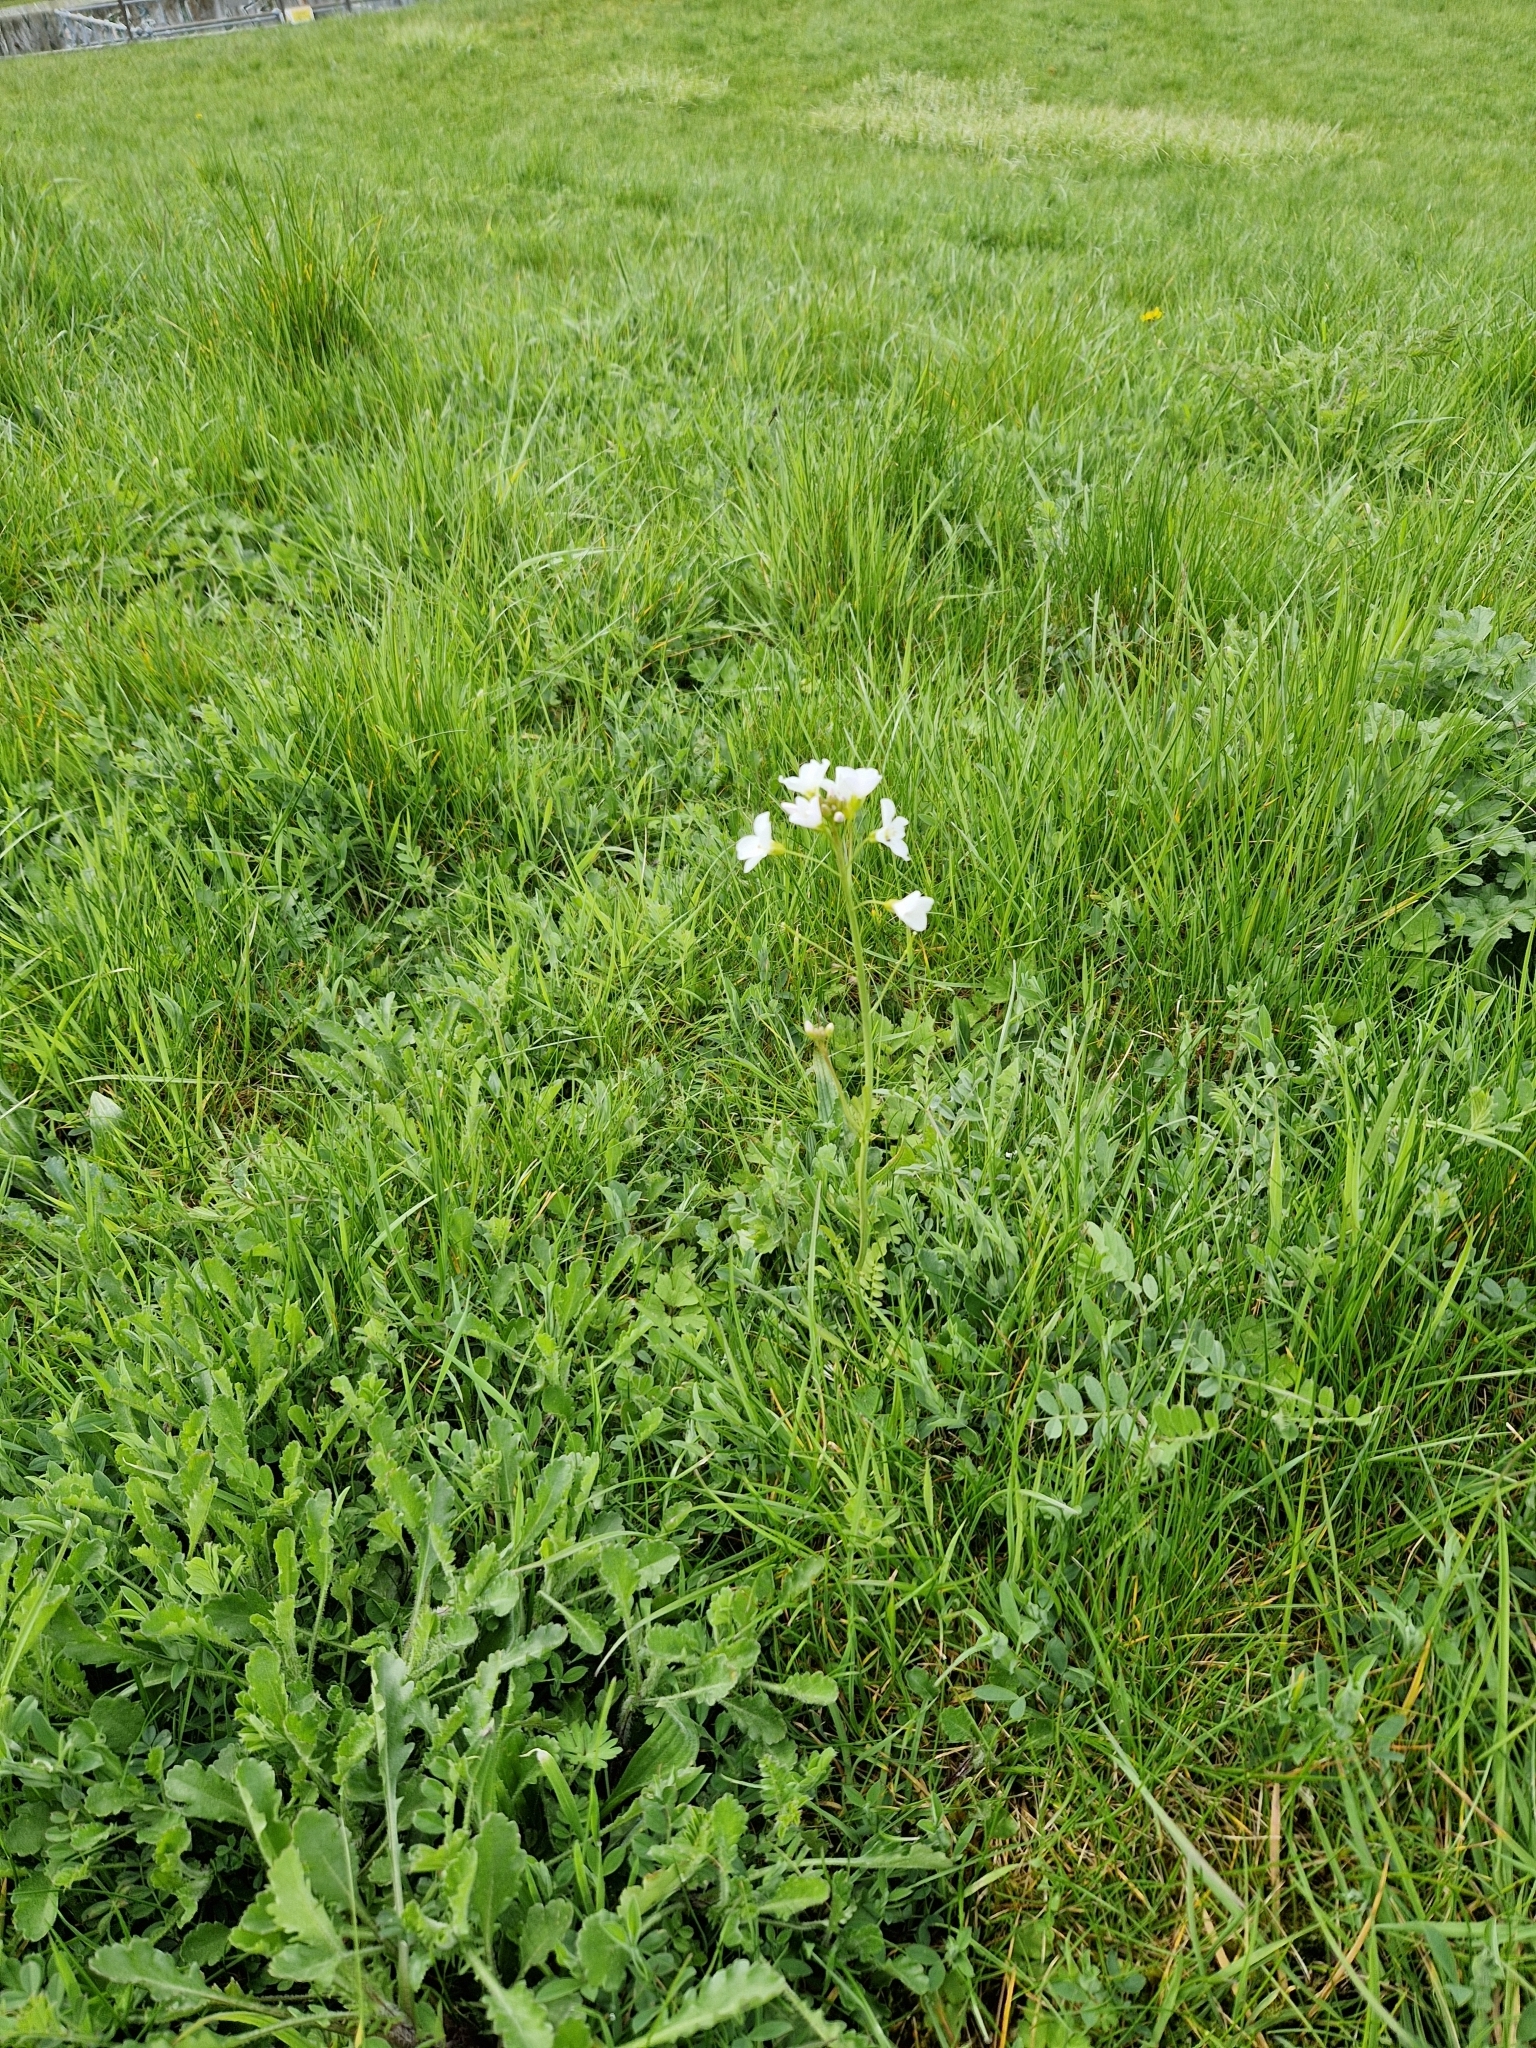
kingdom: Plantae
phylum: Tracheophyta
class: Magnoliopsida
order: Brassicales
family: Brassicaceae
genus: Cardamine
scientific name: Cardamine pratensis
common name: Cuckoo flower
